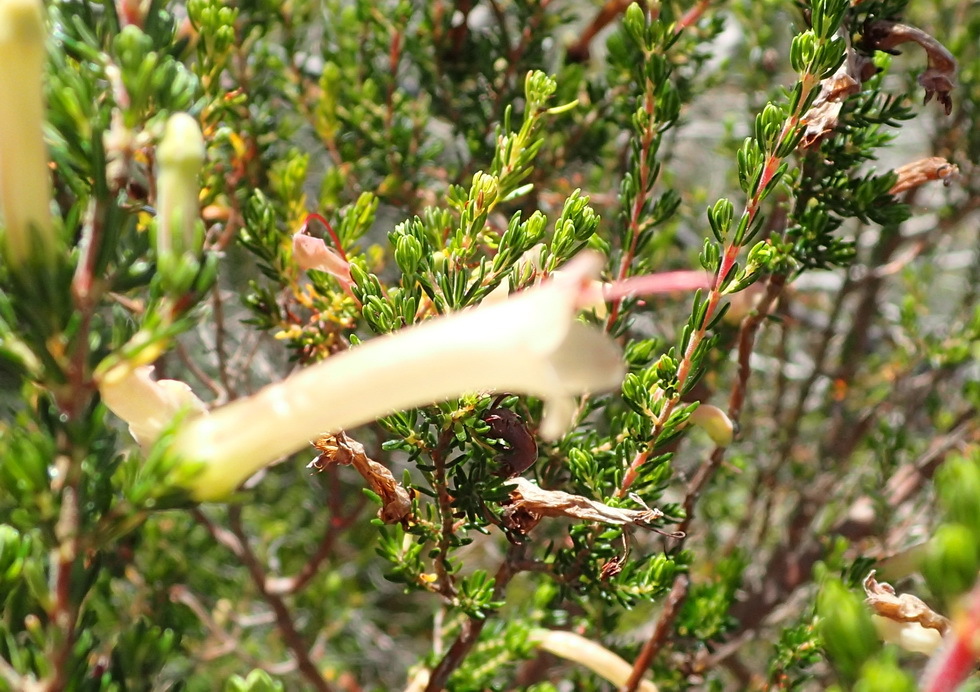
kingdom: Plantae
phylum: Tracheophyta
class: Magnoliopsida
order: Ericales
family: Ericaceae
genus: Erica
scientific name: Erica curviflora
